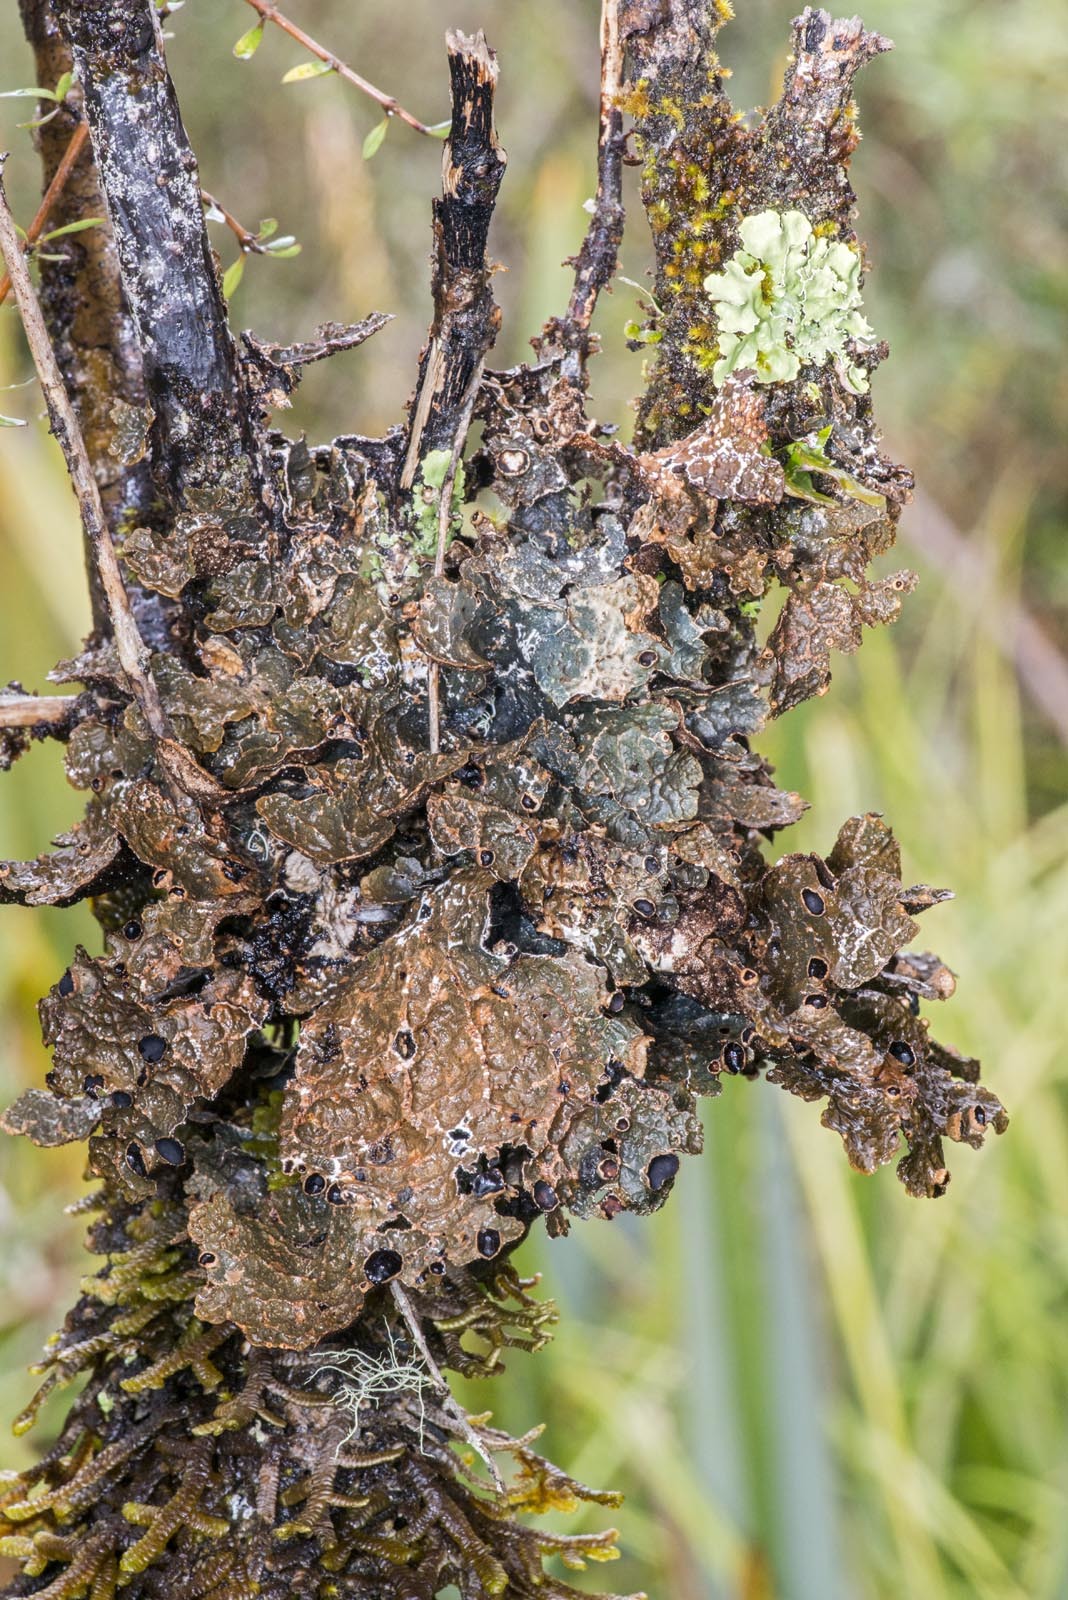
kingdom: Fungi
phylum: Ascomycota
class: Lecanoromycetes
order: Peltigerales
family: Lobariaceae
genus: Pseudocyphellaria
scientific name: Pseudocyphellaria hookeri
